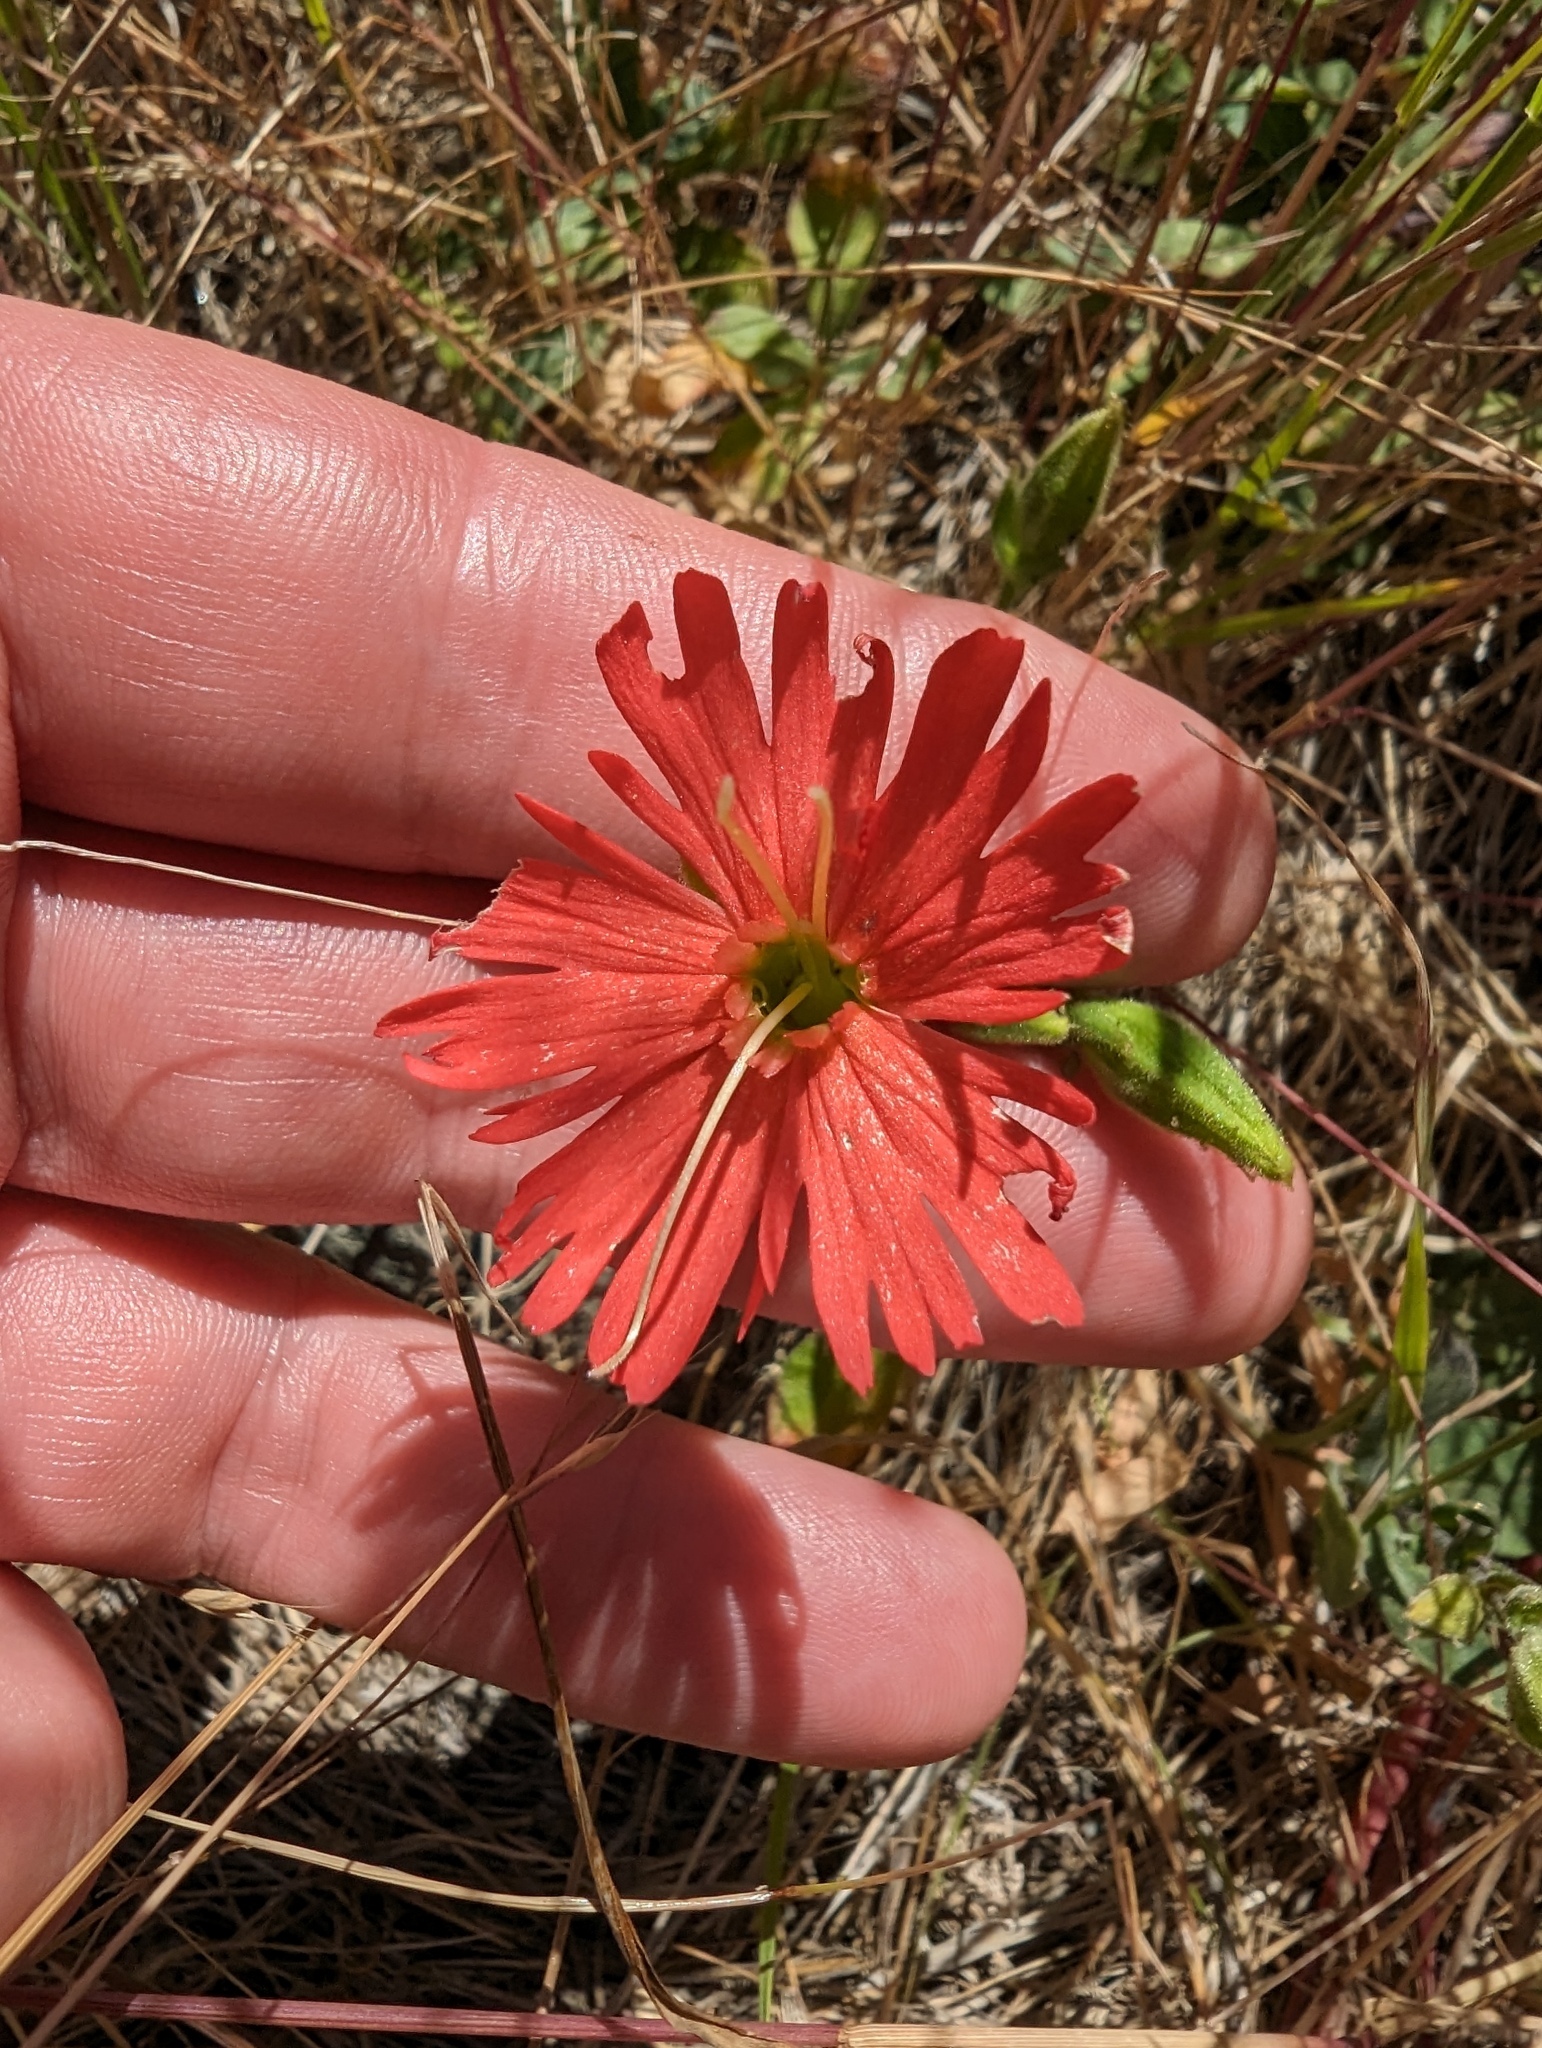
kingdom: Plantae
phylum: Tracheophyta
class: Magnoliopsida
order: Caryophyllales
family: Caryophyllaceae
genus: Silene
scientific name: Silene laciniata
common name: Indian-pink
